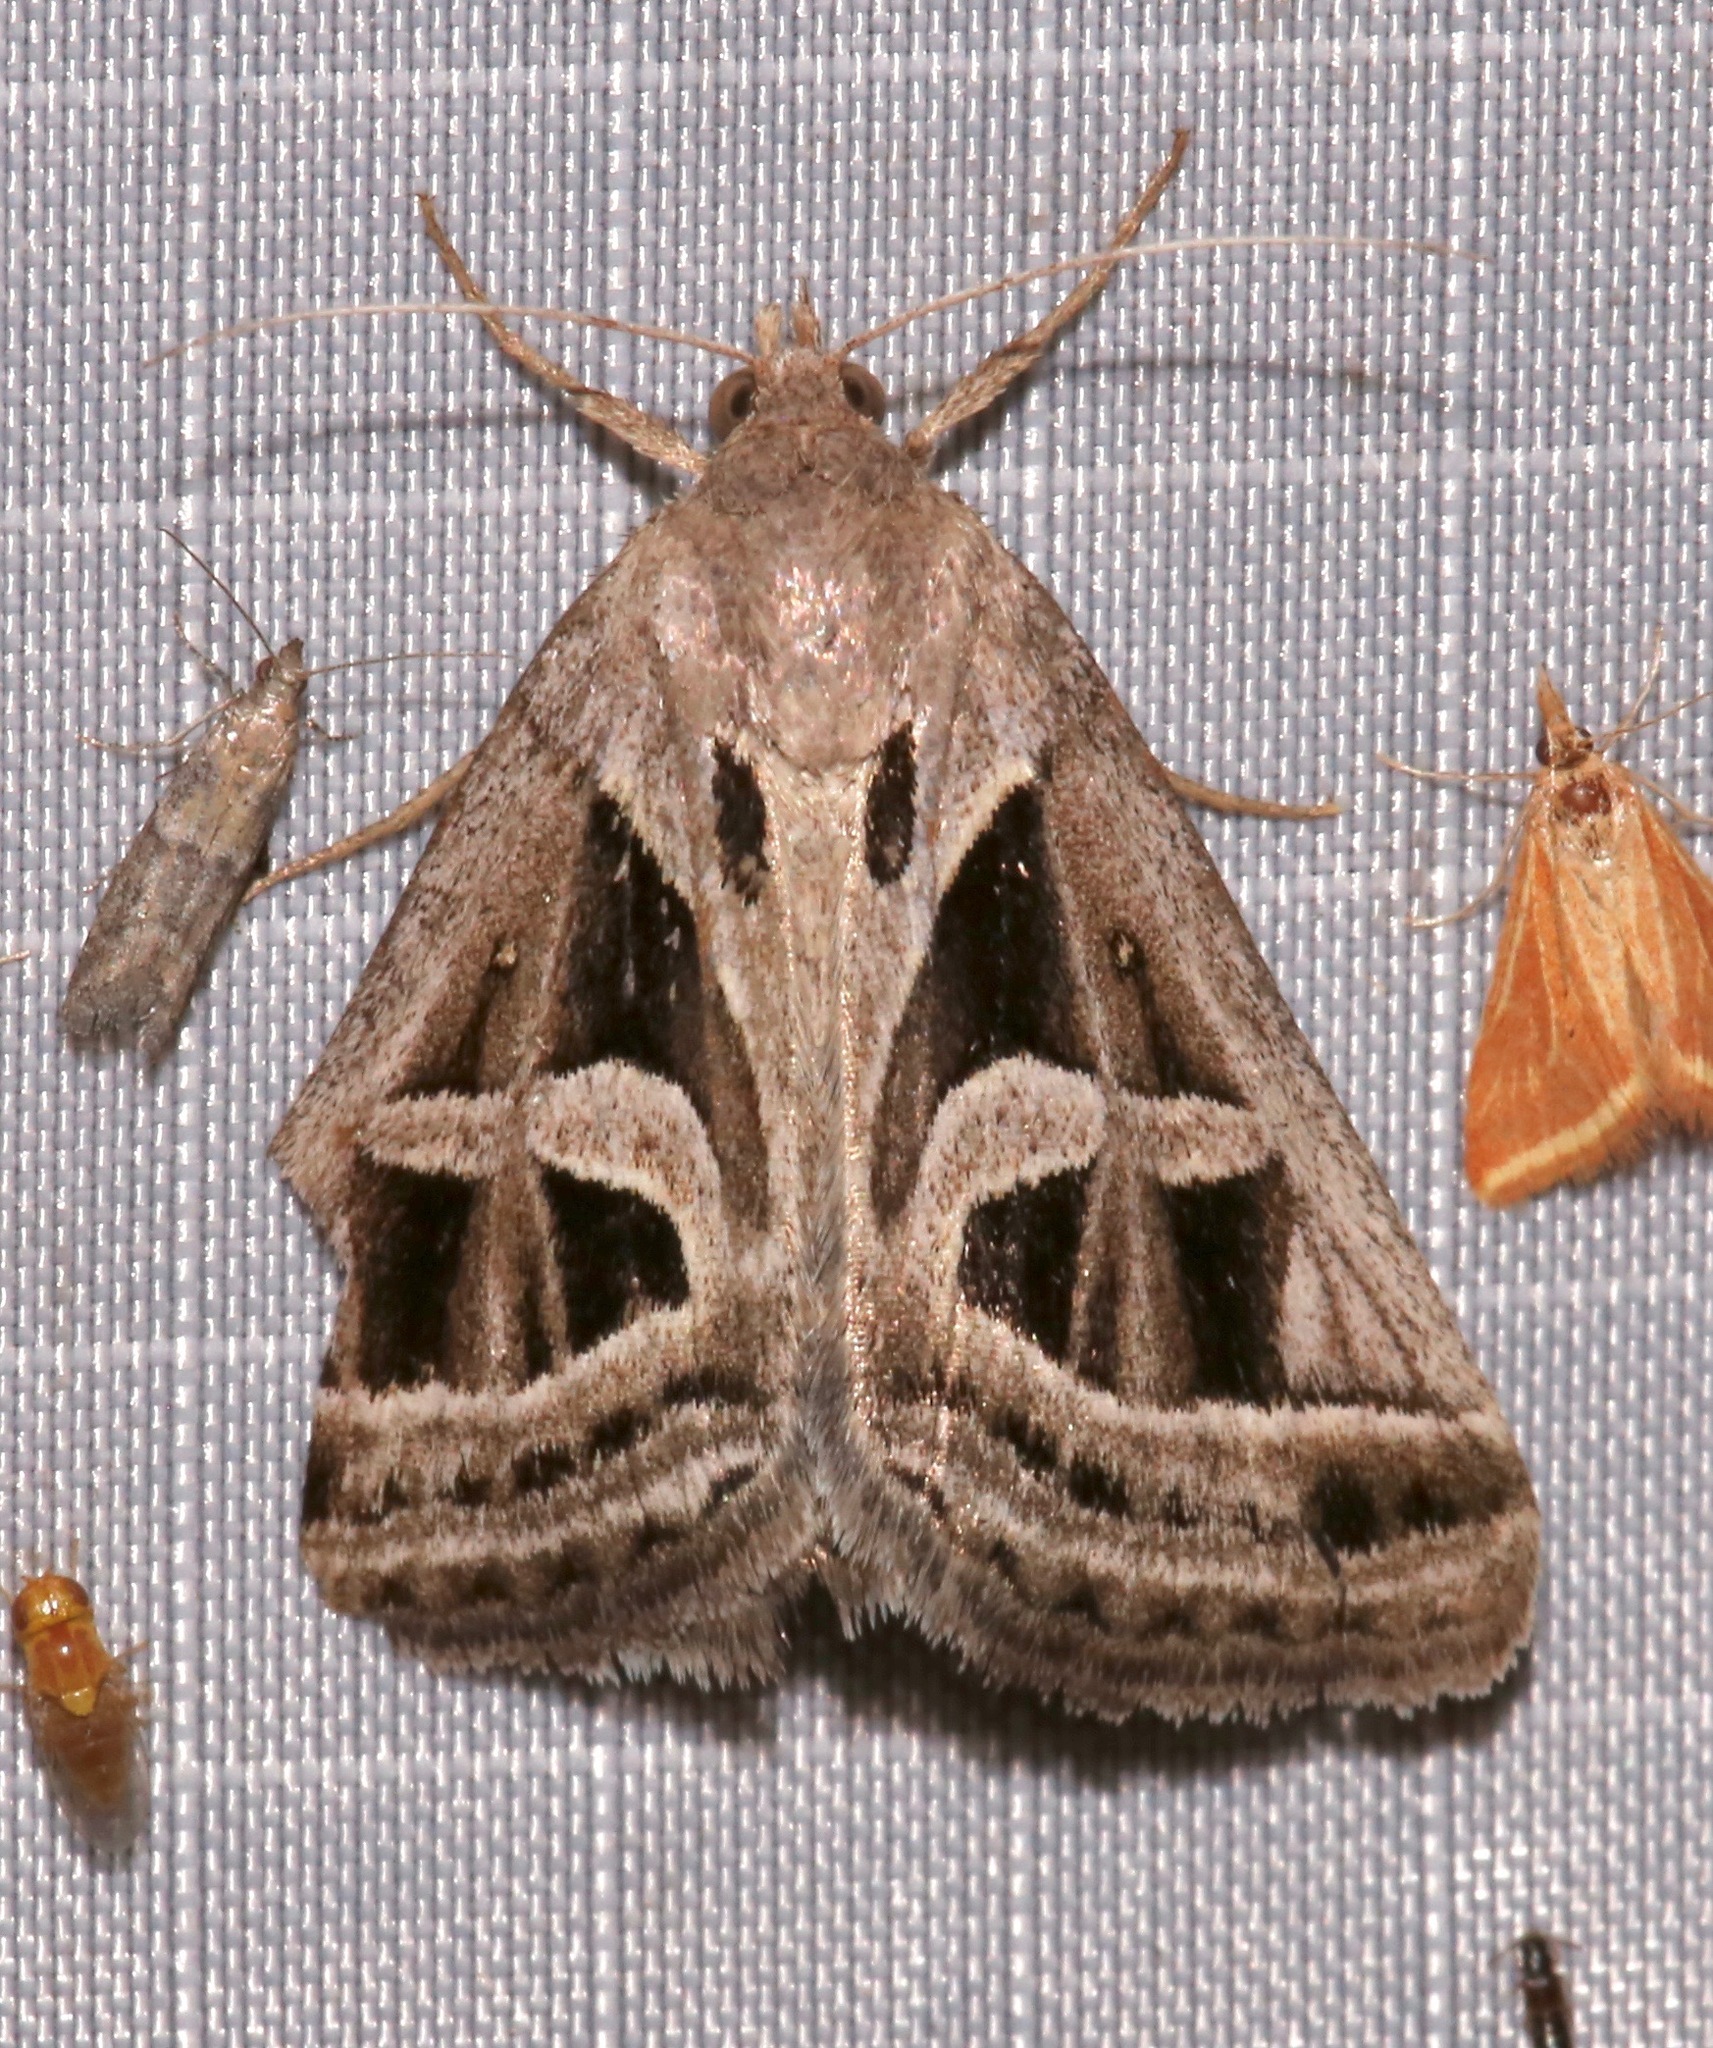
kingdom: Animalia
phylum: Arthropoda
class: Insecta
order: Lepidoptera
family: Erebidae
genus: Callistege
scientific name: Callistege intercalaris
